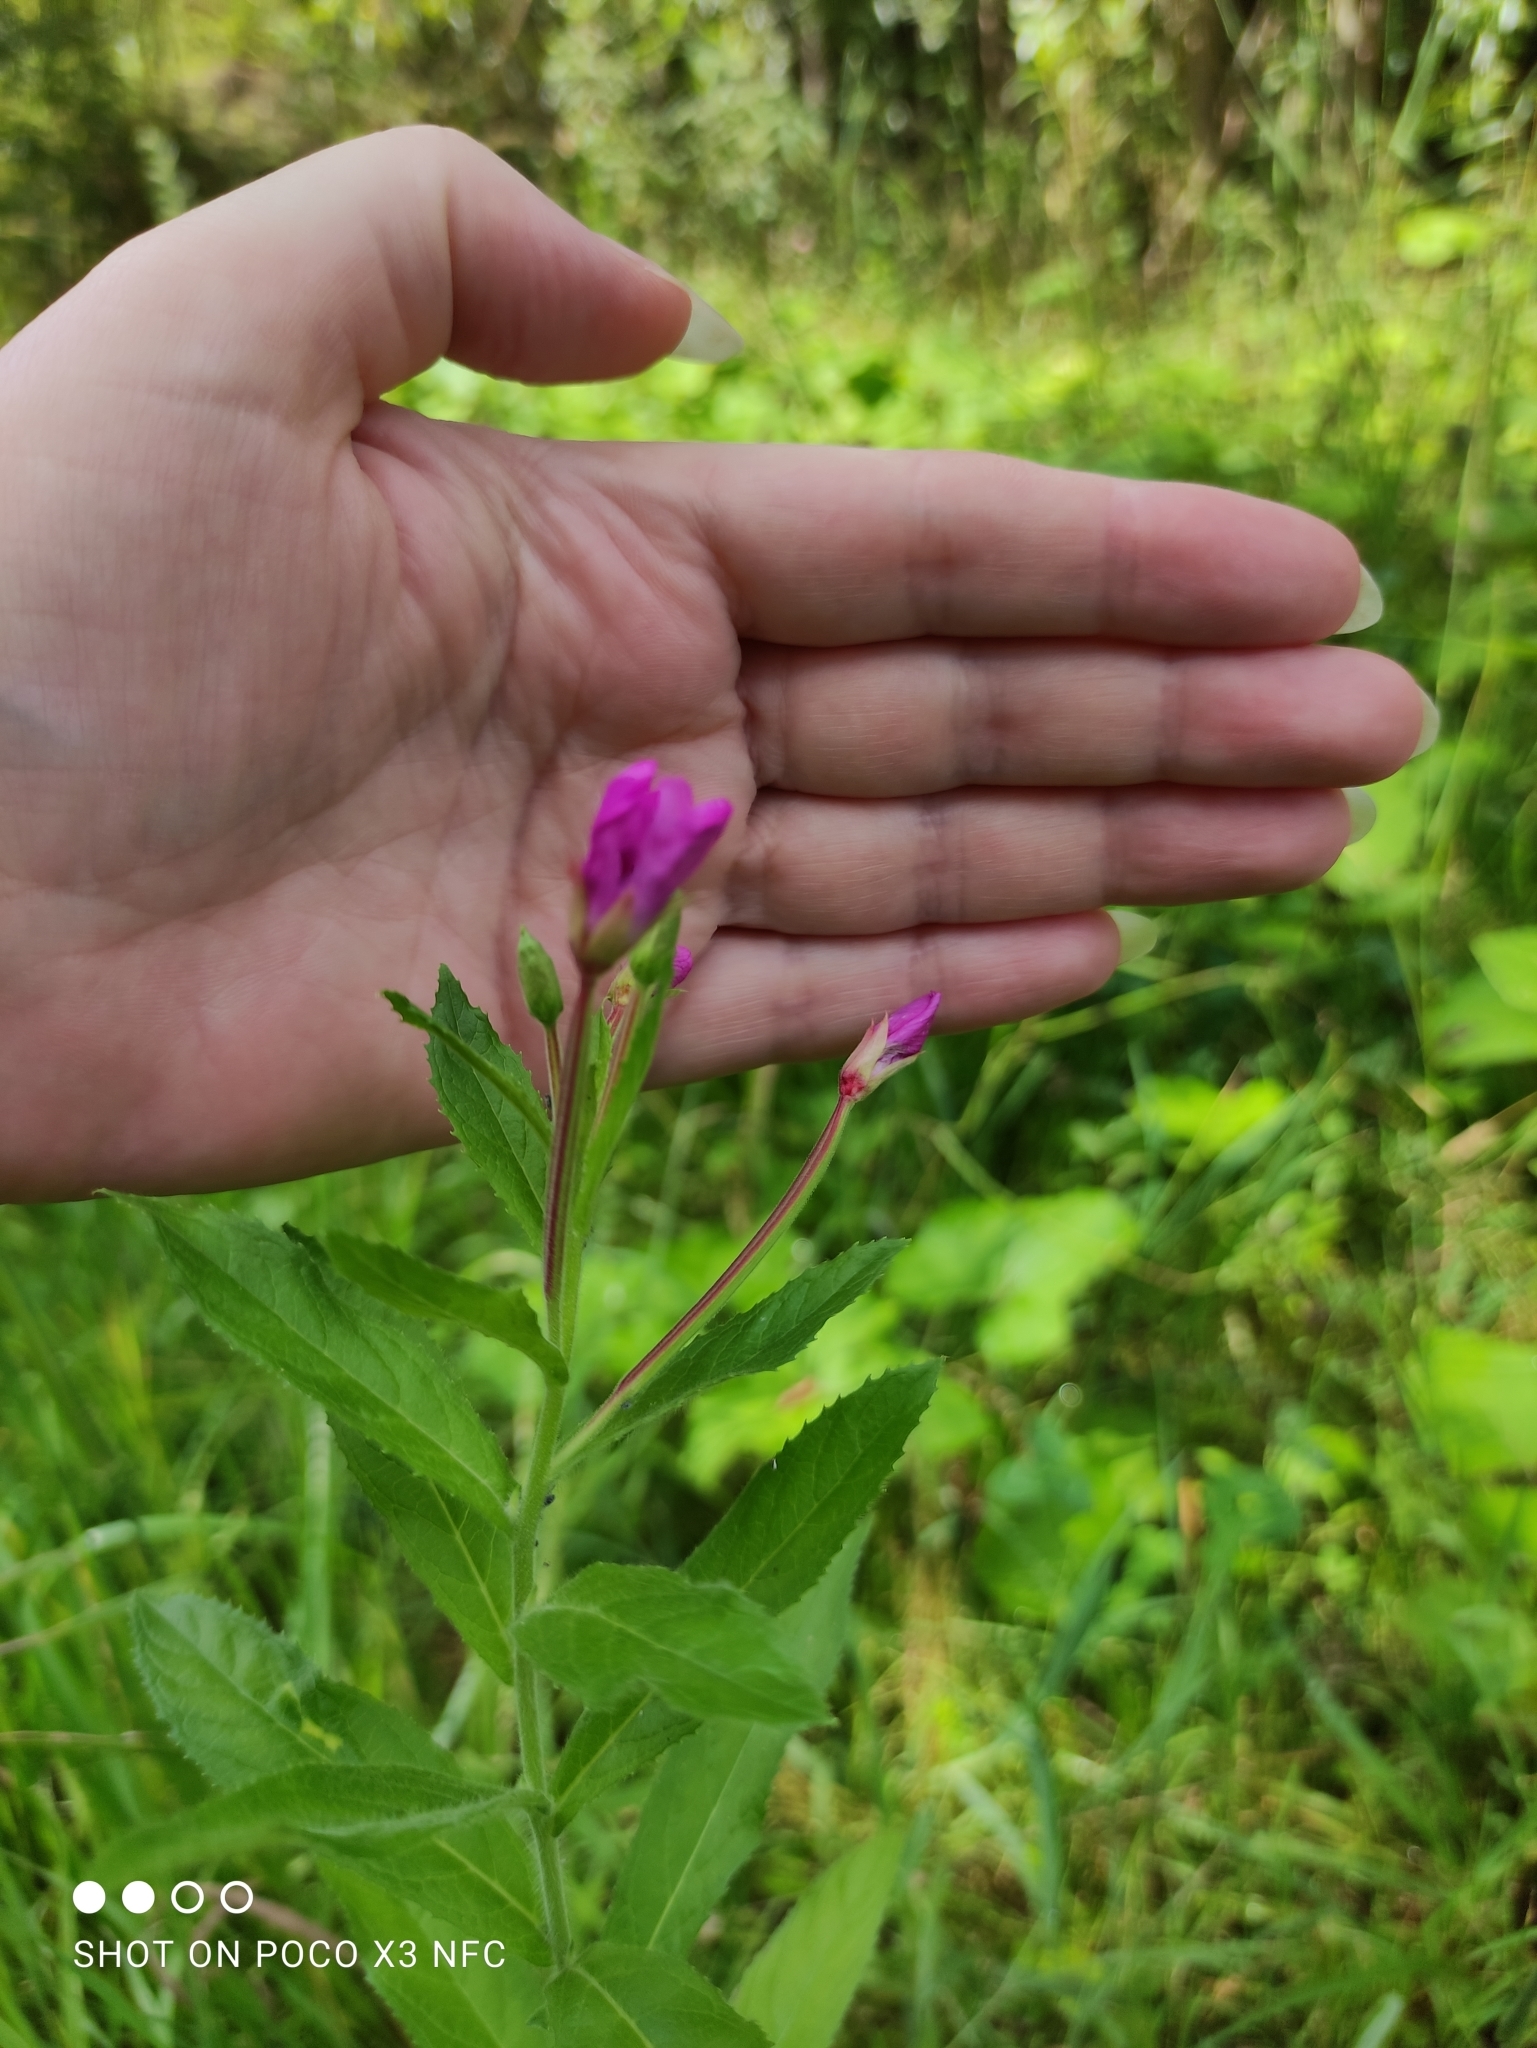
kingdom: Plantae
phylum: Tracheophyta
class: Magnoliopsida
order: Myrtales
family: Onagraceae
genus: Epilobium
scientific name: Epilobium hirsutum
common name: Great willowherb
